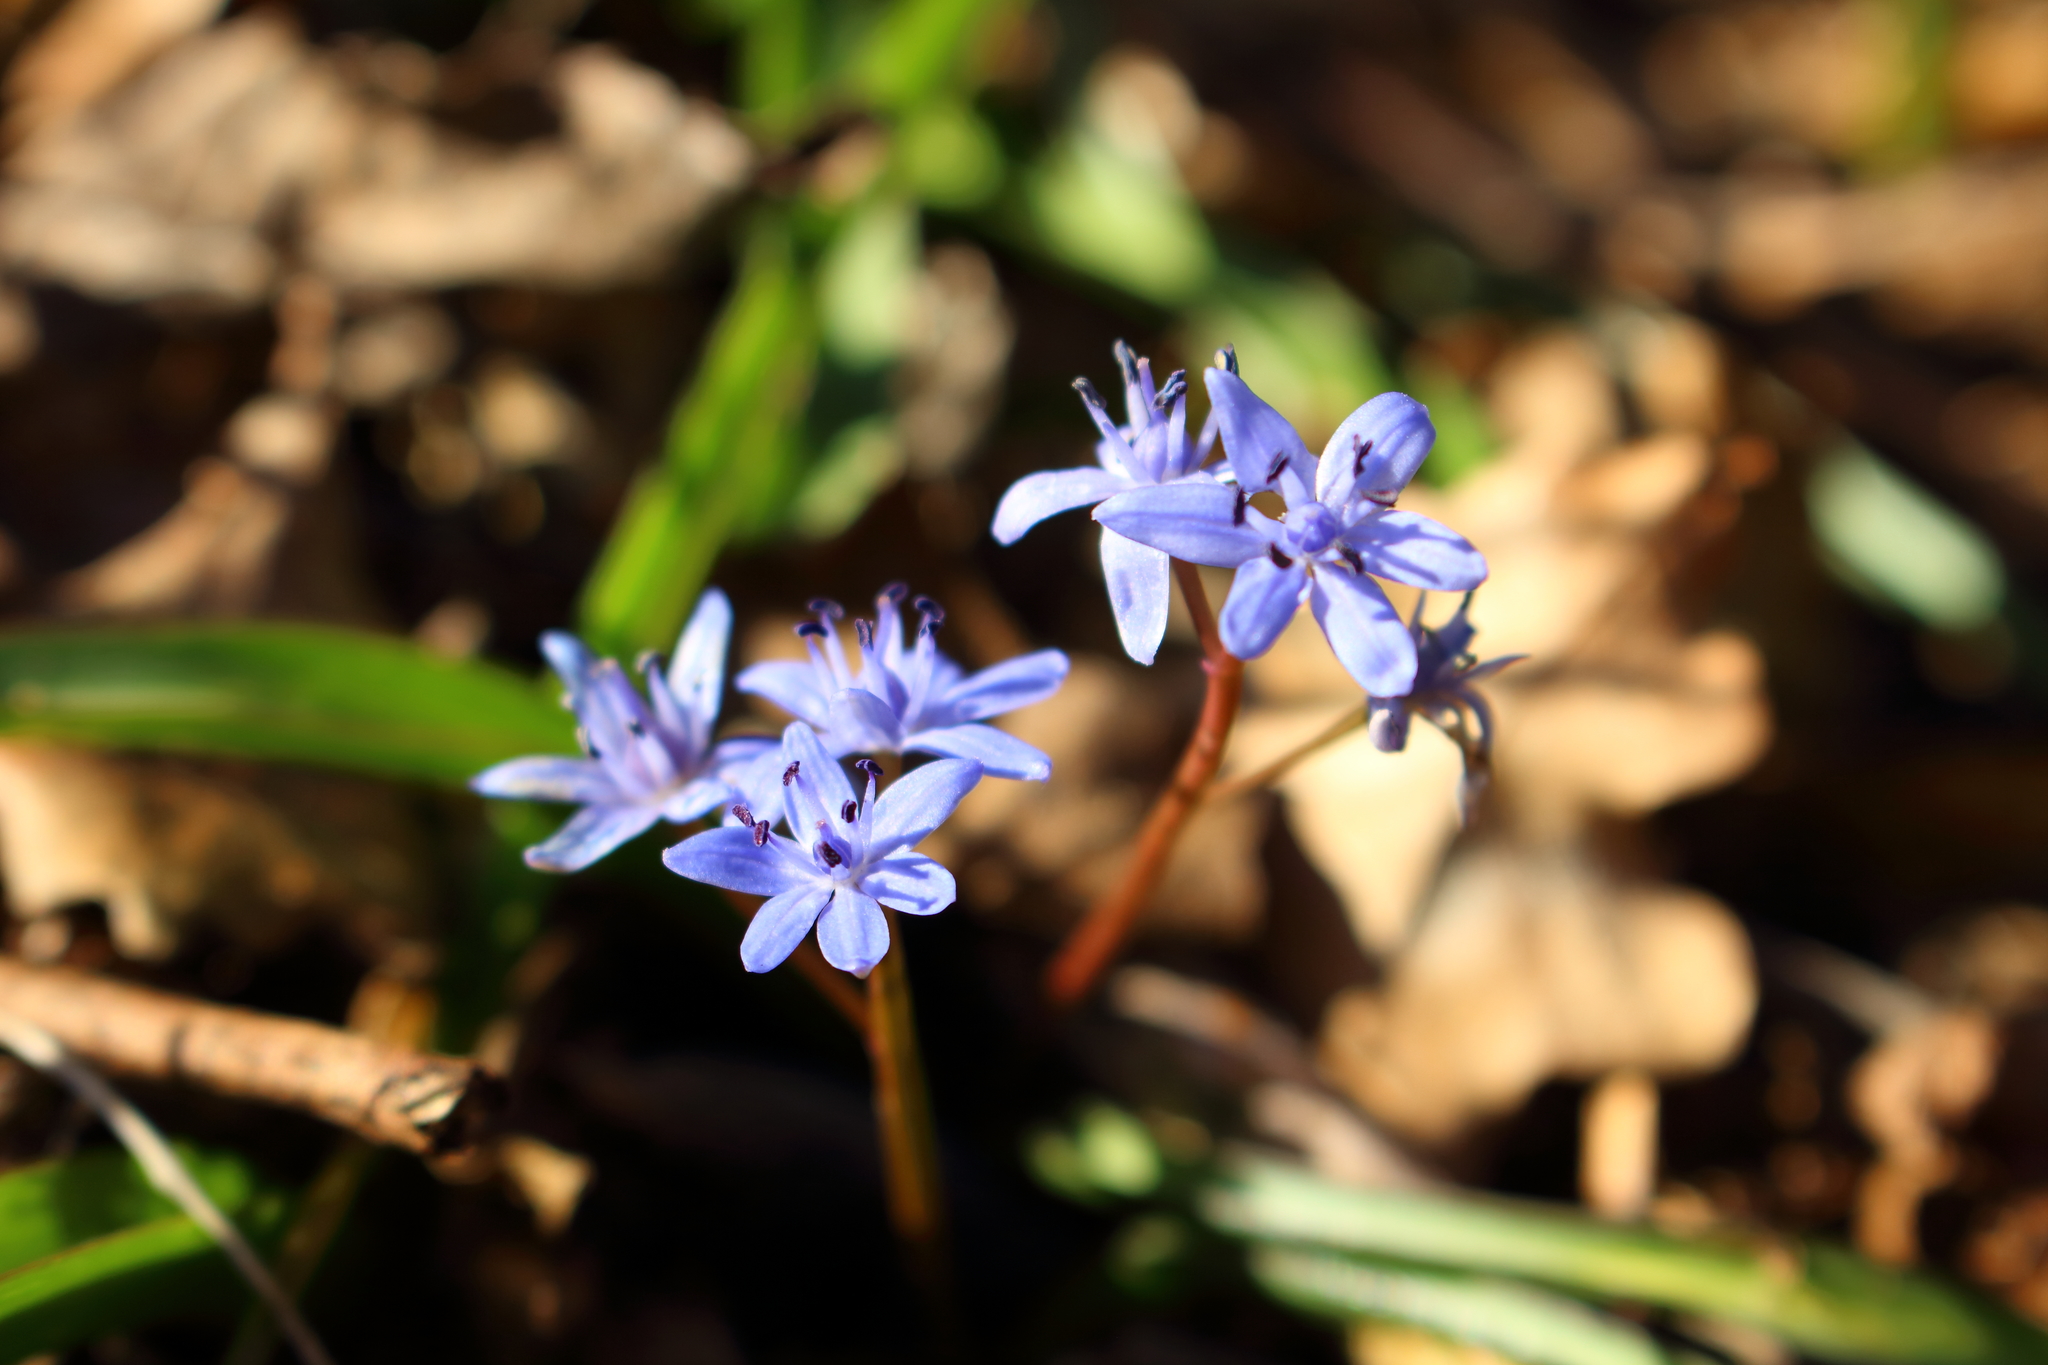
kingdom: Plantae
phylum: Tracheophyta
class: Liliopsida
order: Asparagales
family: Asparagaceae
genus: Scilla
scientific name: Scilla vindobonensis
